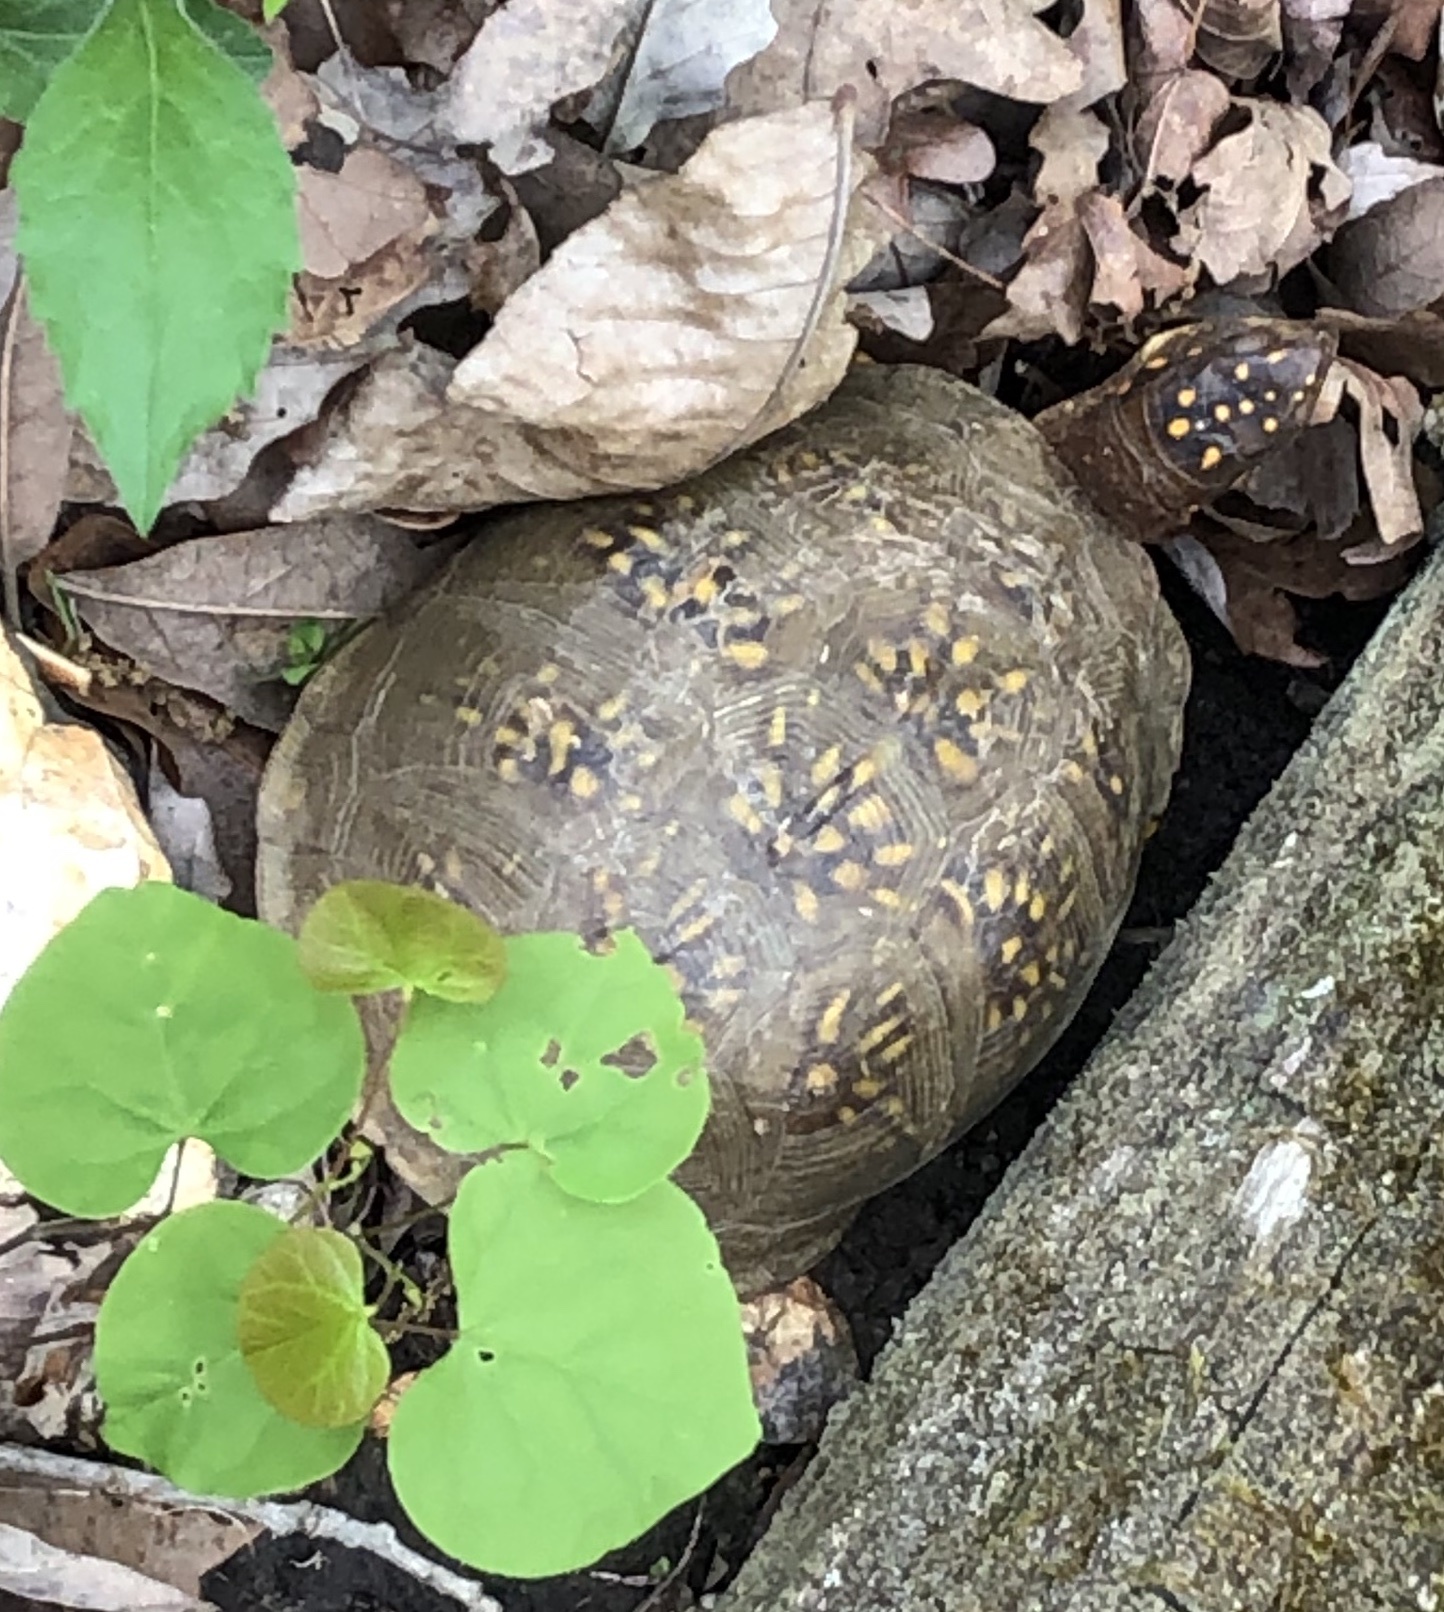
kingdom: Animalia
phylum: Chordata
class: Testudines
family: Emydidae
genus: Terrapene
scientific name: Terrapene carolina
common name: Common box turtle
